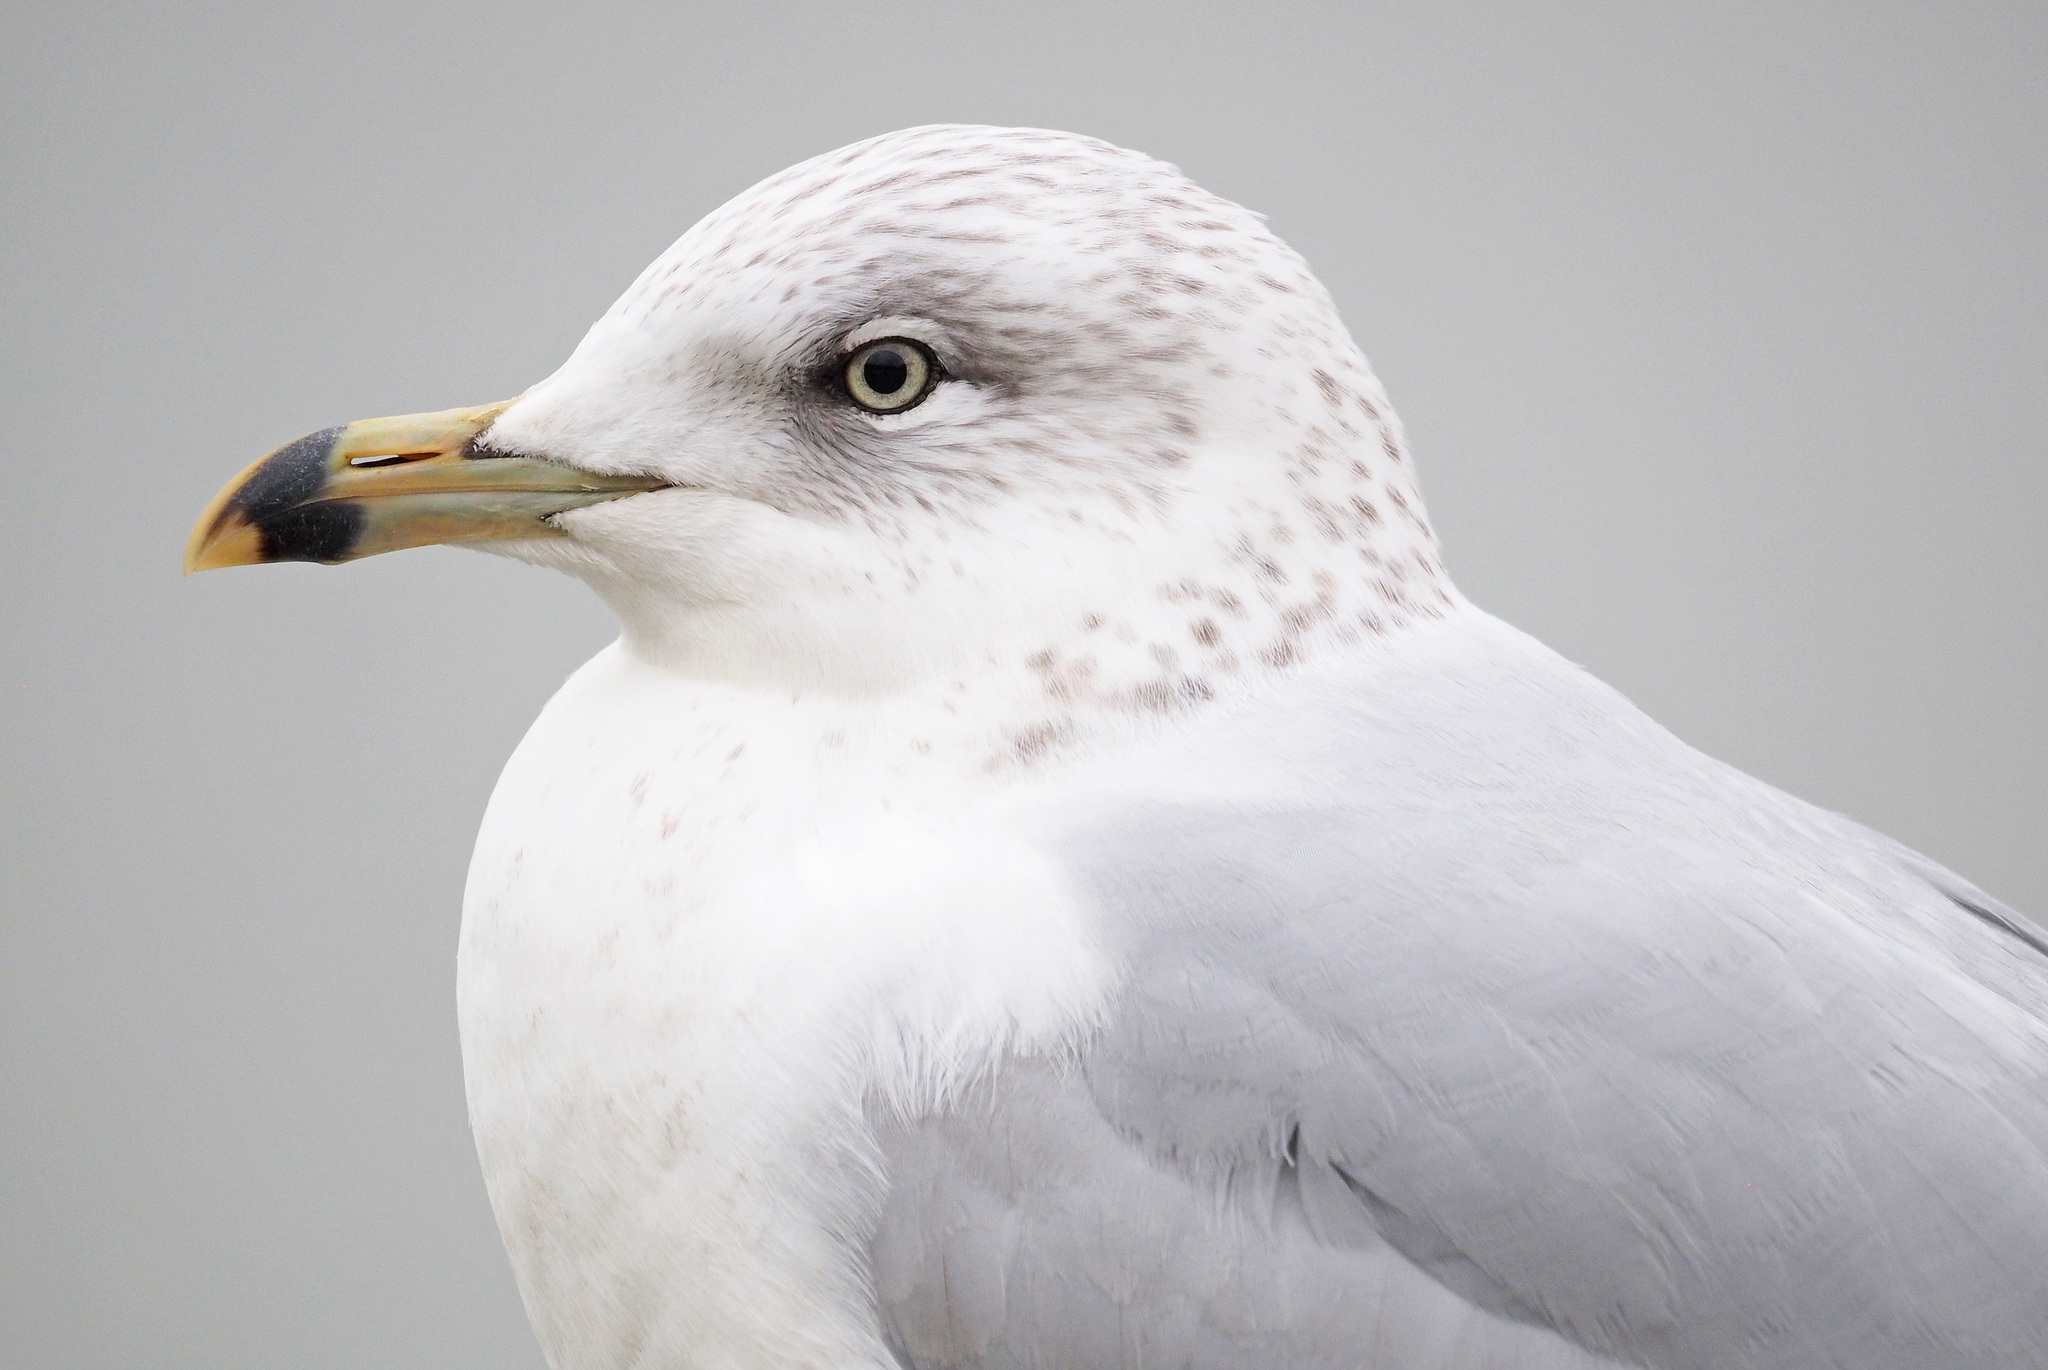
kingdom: Animalia
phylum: Chordata
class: Aves
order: Charadriiformes
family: Laridae
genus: Larus
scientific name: Larus delawarensis
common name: Ring-billed gull
